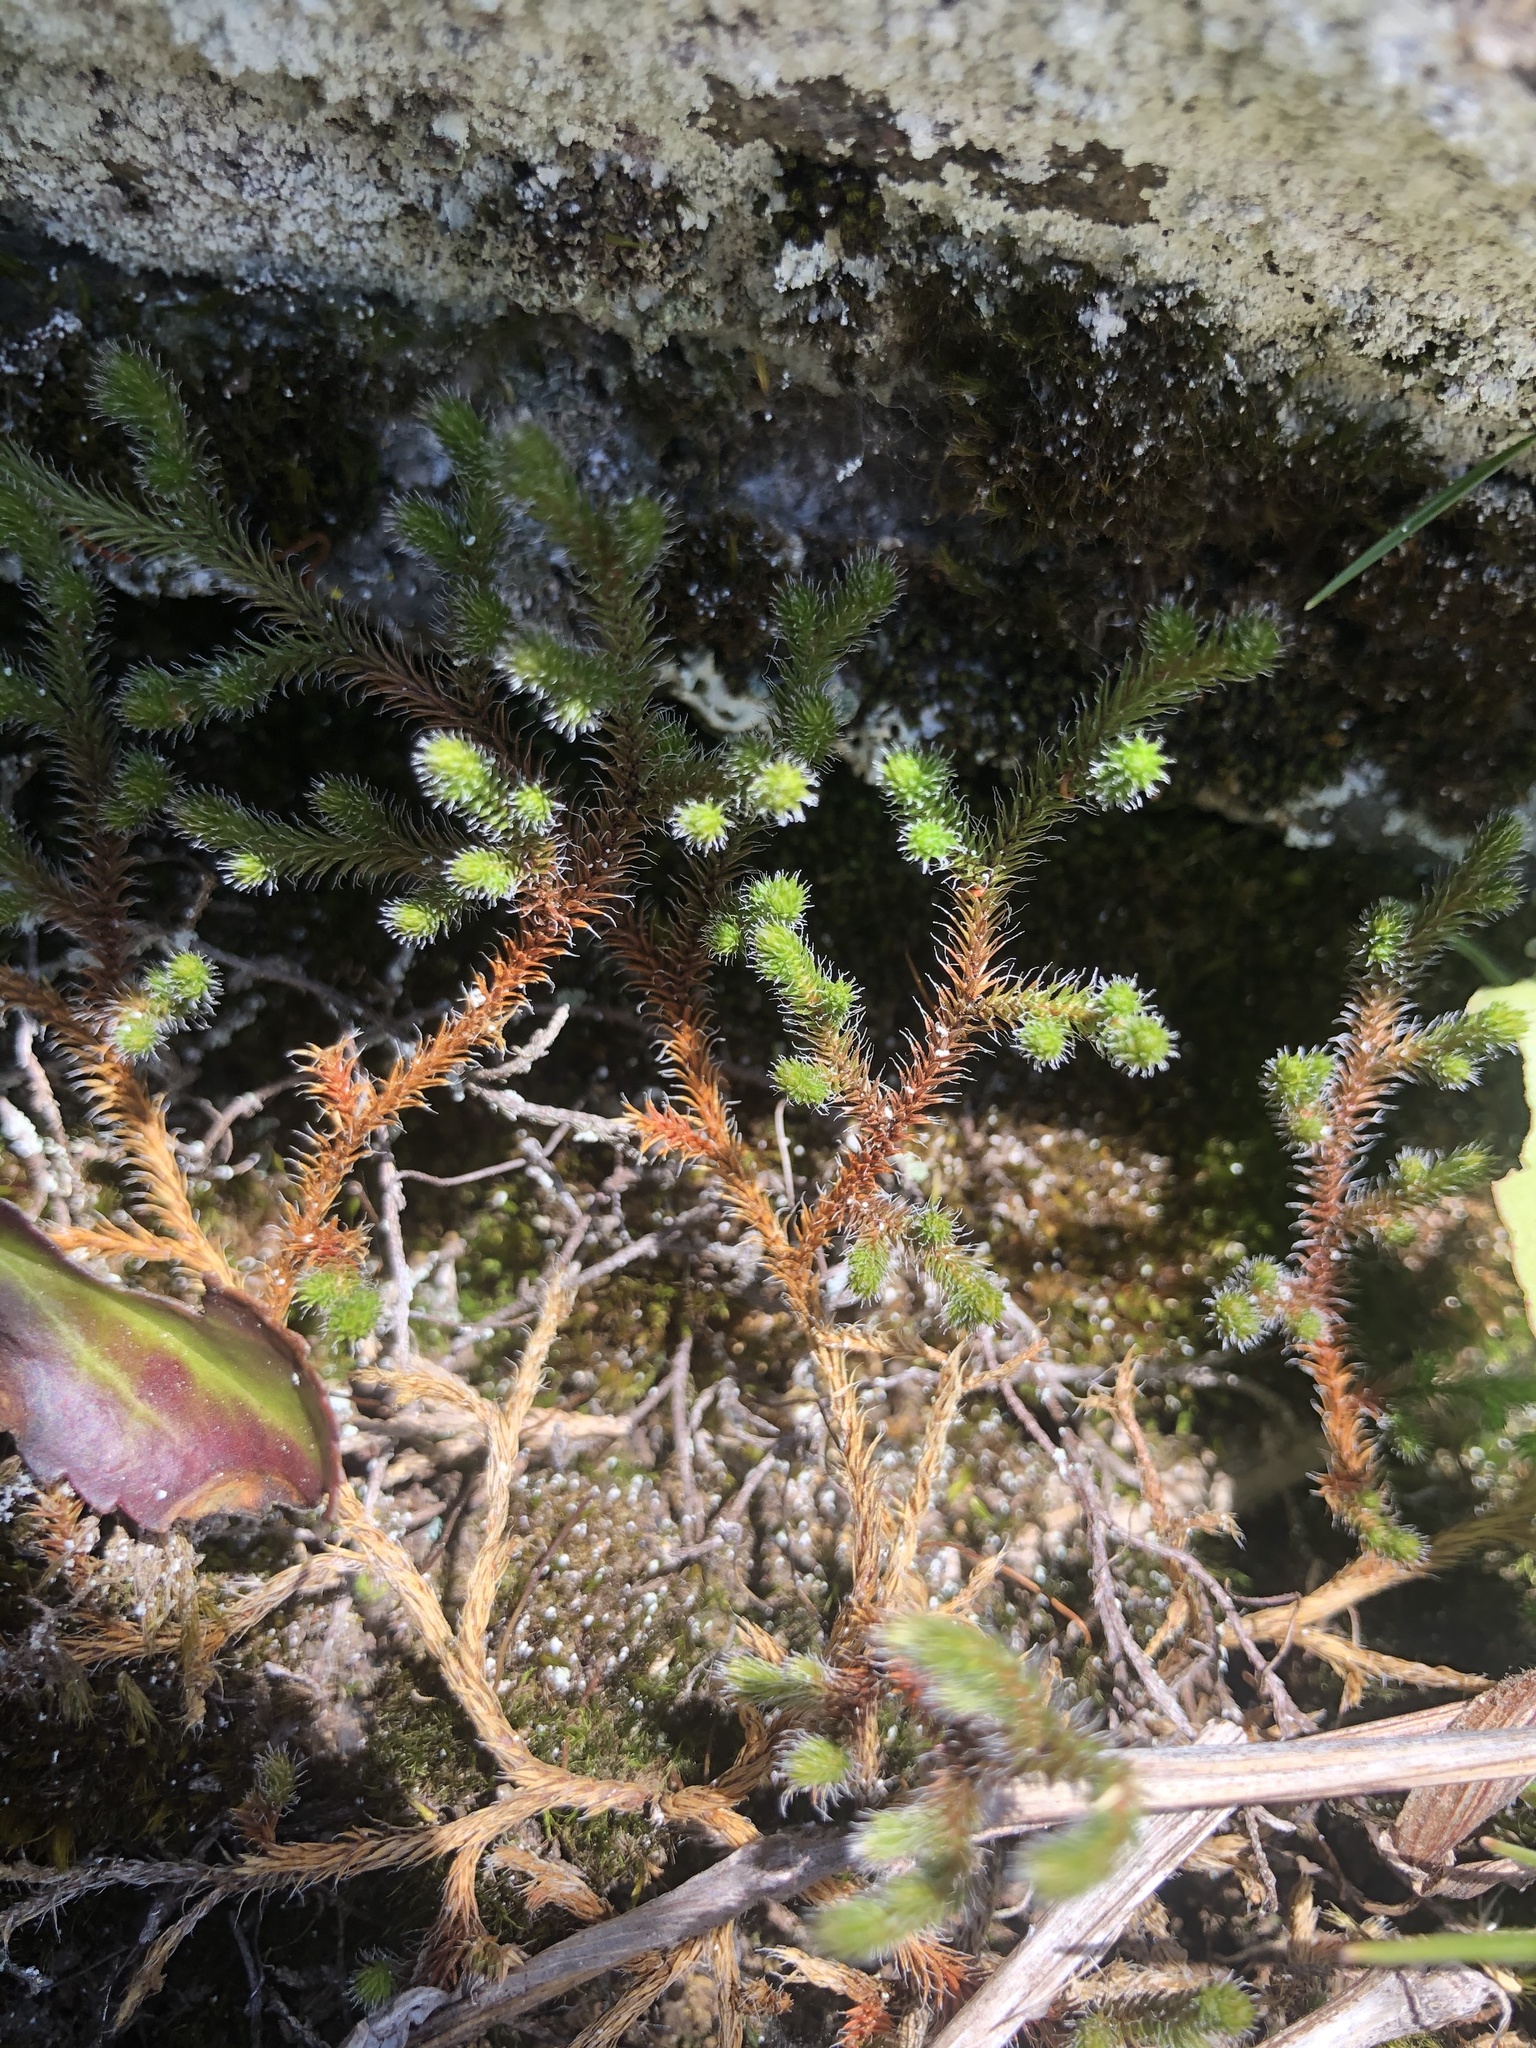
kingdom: Plantae
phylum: Tracheophyta
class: Lycopodiopsida
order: Selaginellales
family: Selaginellaceae
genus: Selaginella
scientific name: Selaginella rupestris
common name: Dwarf spikemoss
